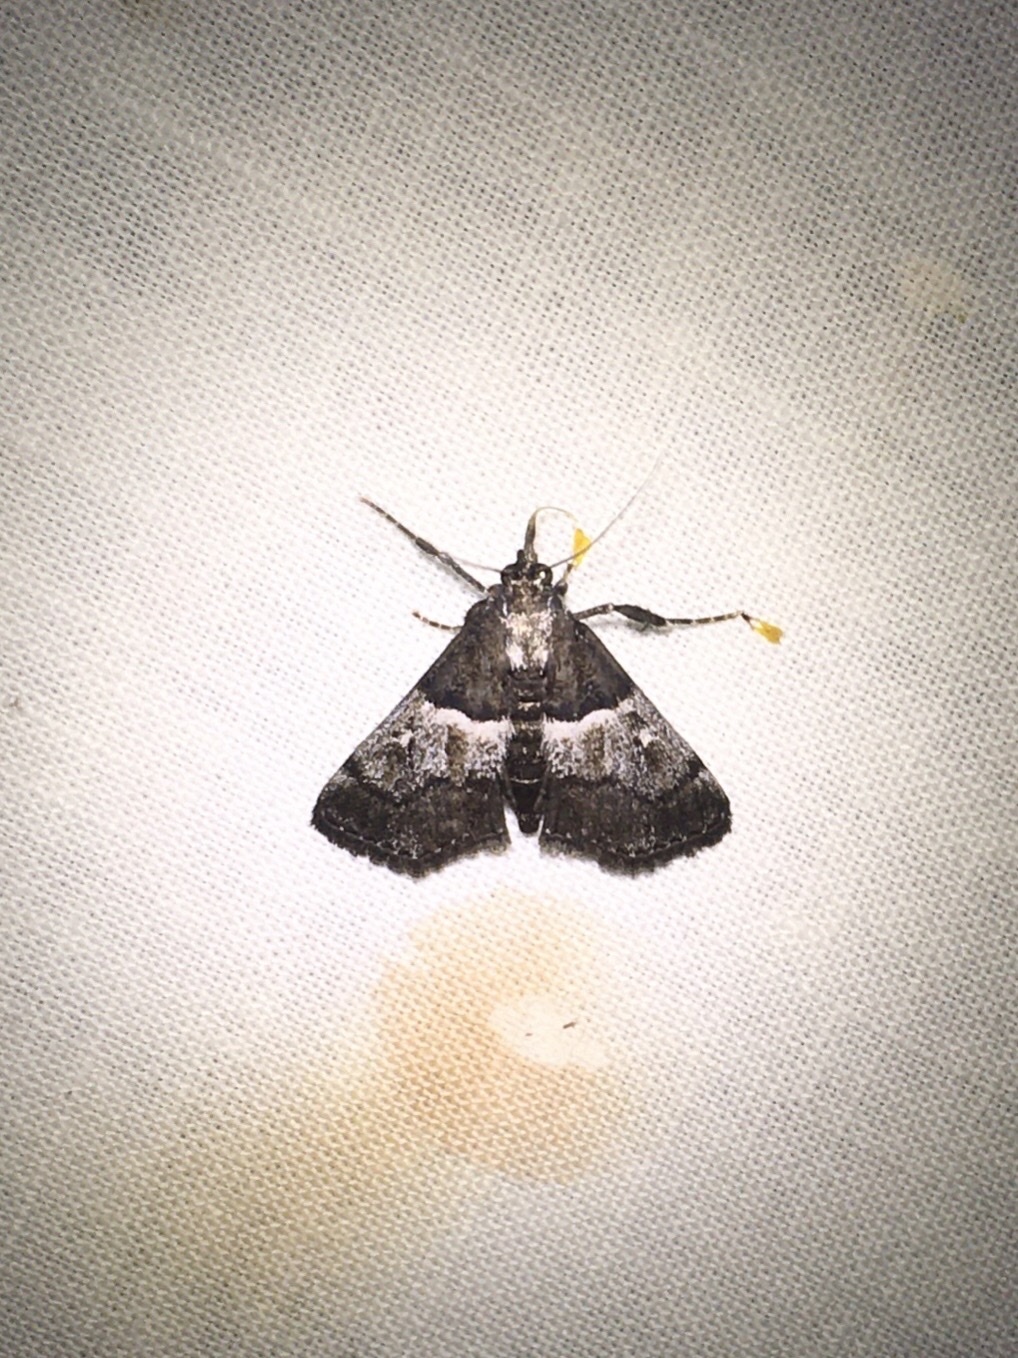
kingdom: Animalia
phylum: Arthropoda
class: Insecta
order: Lepidoptera
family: Pyralidae
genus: Macalla
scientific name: Macalla zelleri
